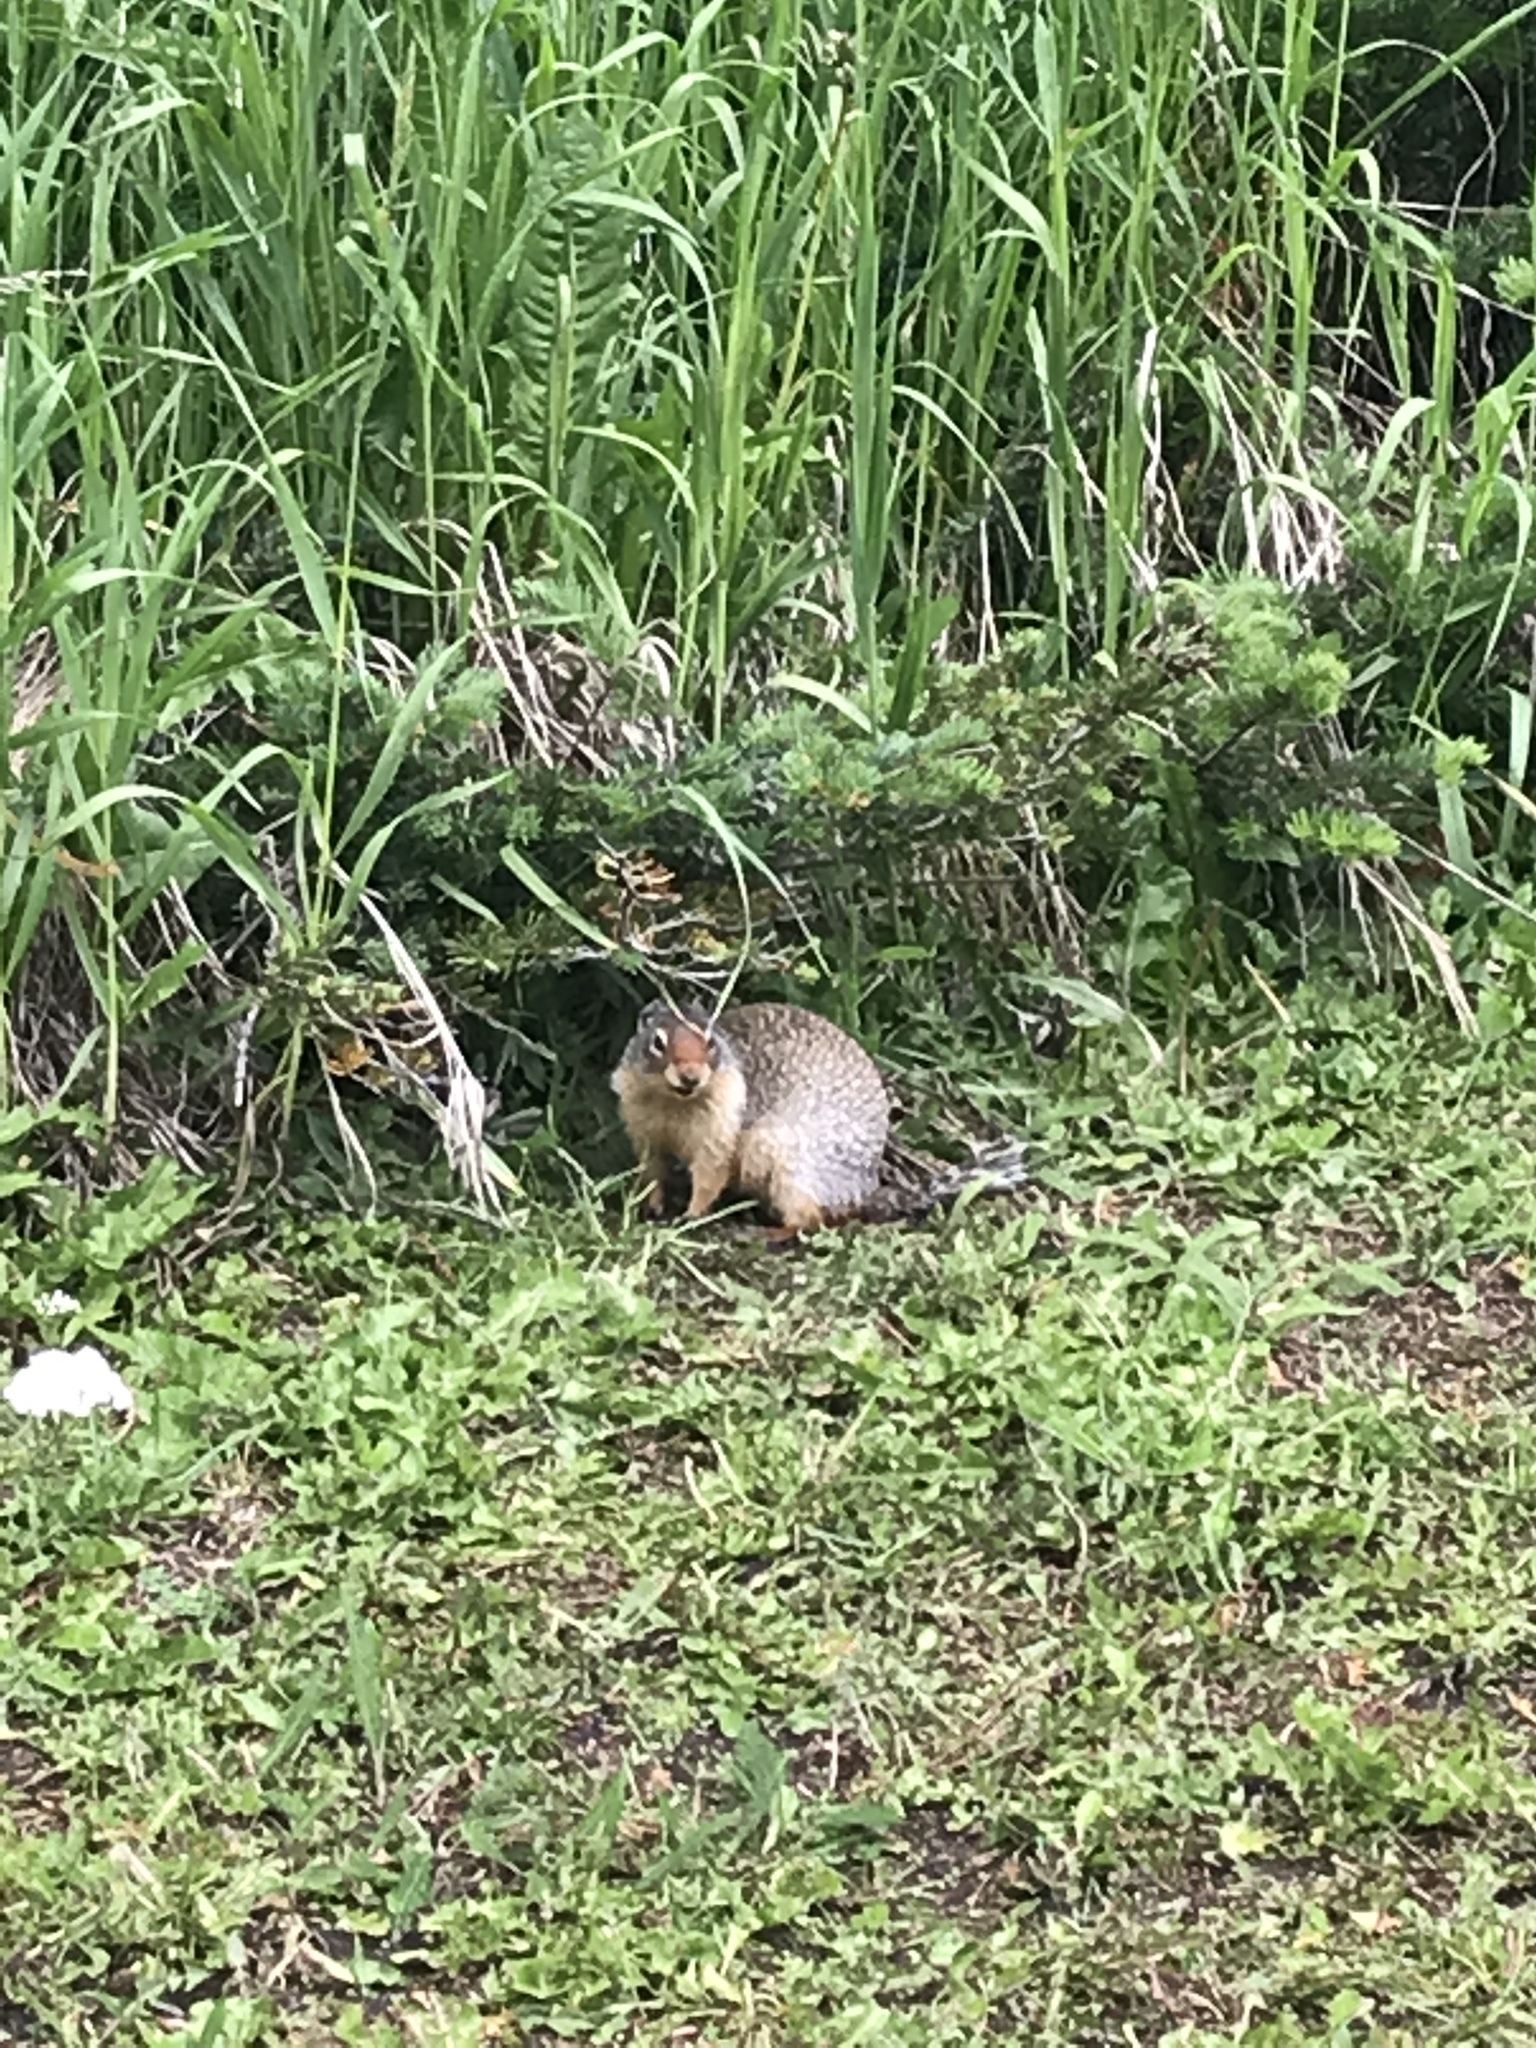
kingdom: Animalia
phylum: Chordata
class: Mammalia
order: Rodentia
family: Sciuridae
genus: Urocitellus
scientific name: Urocitellus columbianus
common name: Columbian ground squirrel
